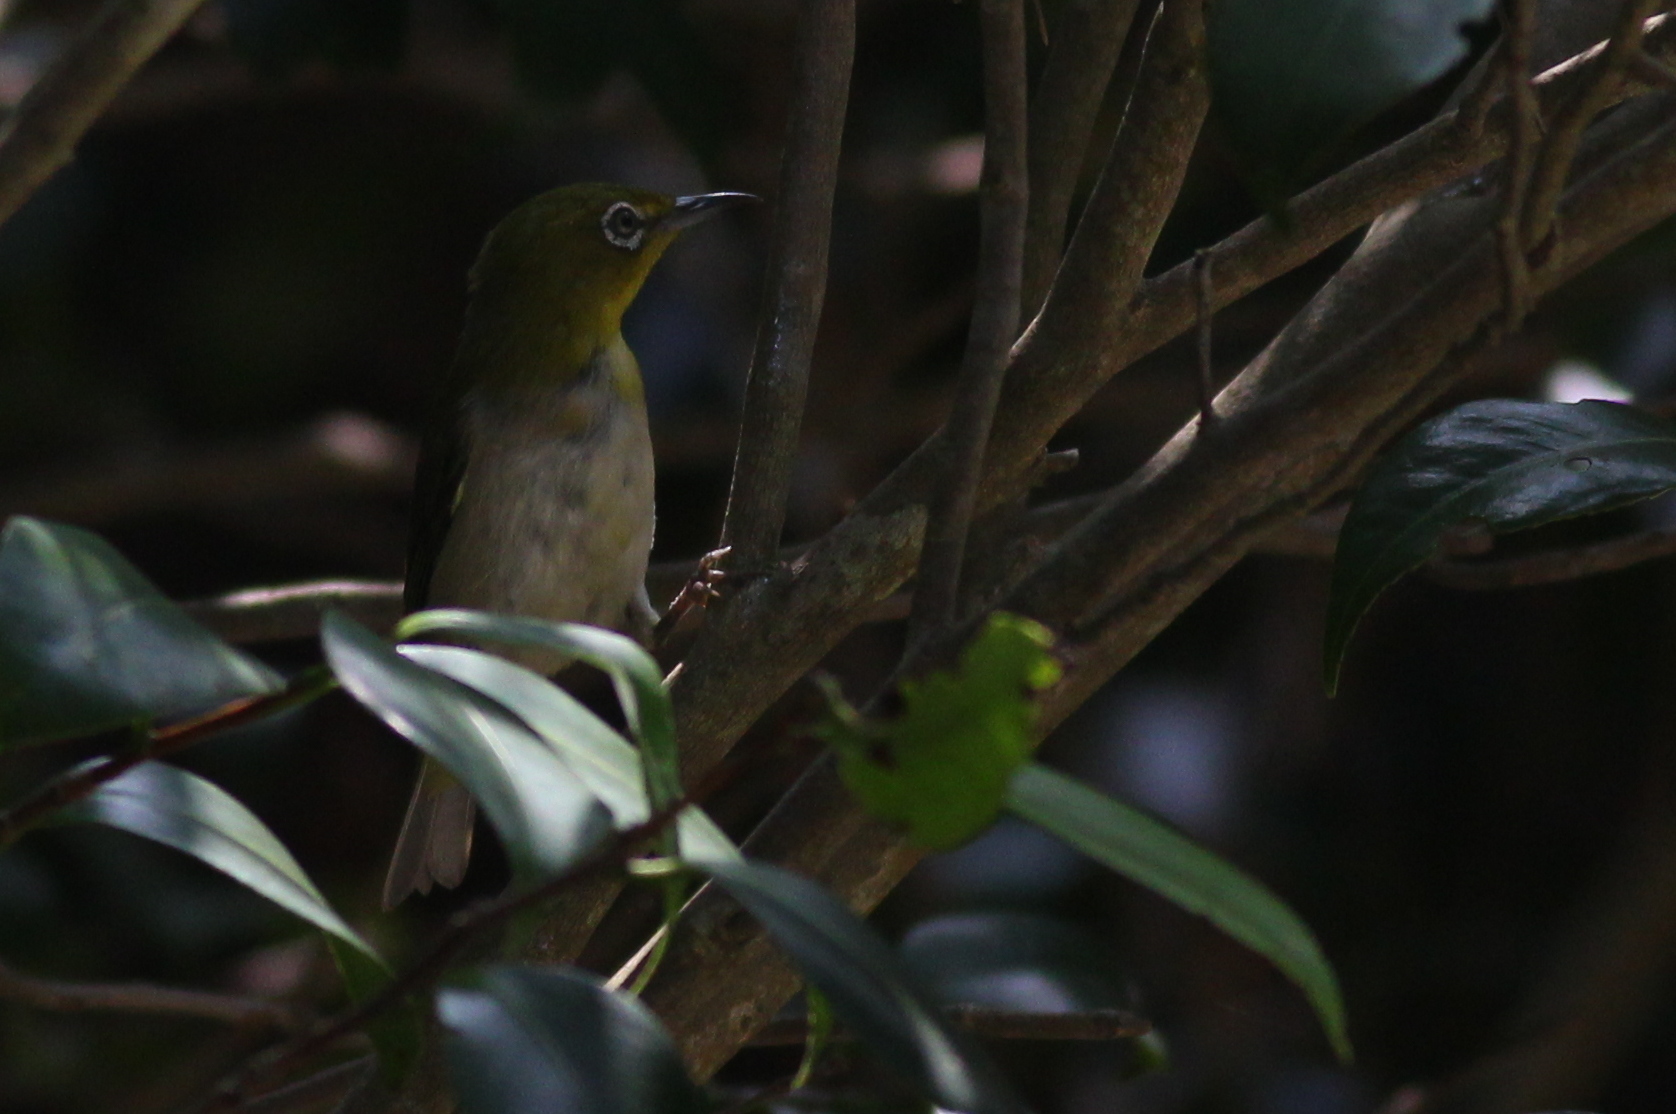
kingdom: Animalia
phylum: Chordata
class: Aves
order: Passeriformes
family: Zosteropidae
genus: Zosterops
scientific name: Zosterops japonicus
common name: Japanese white-eye
